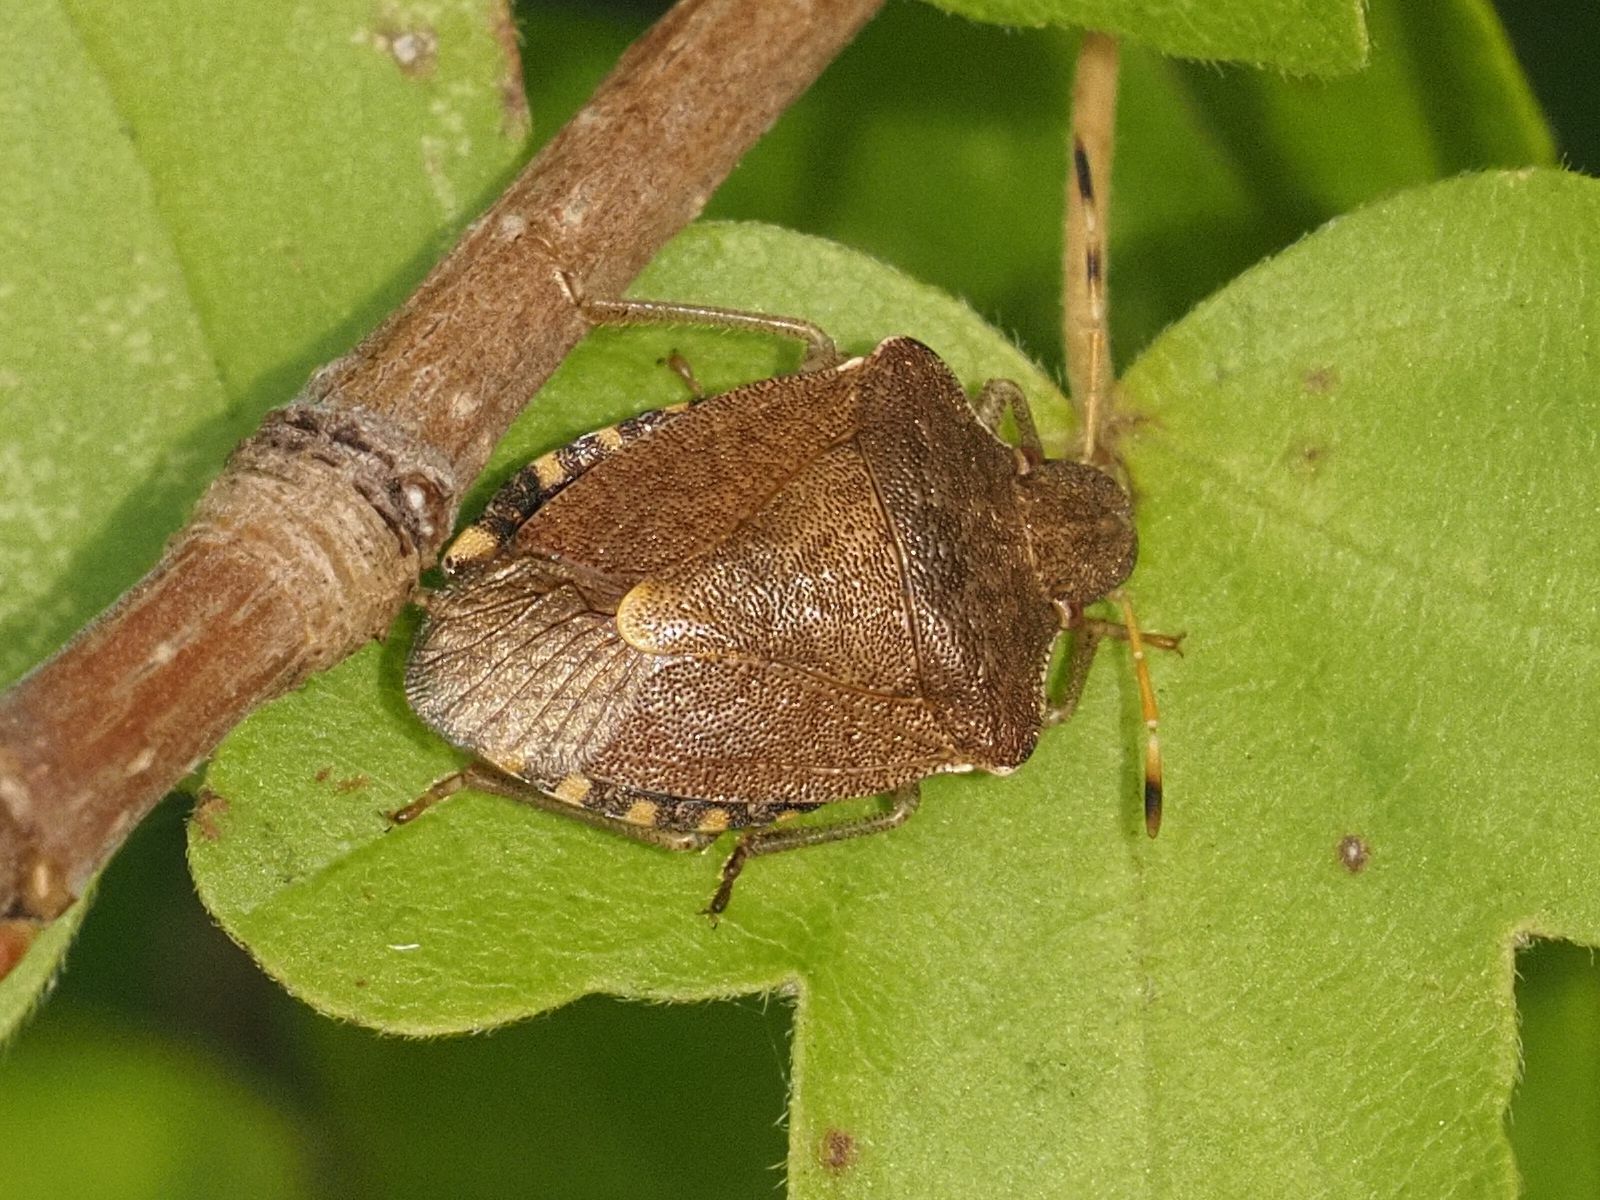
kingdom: Animalia
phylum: Arthropoda
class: Insecta
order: Hemiptera
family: Pentatomidae
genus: Holcostethus
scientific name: Holcostethus strictus
